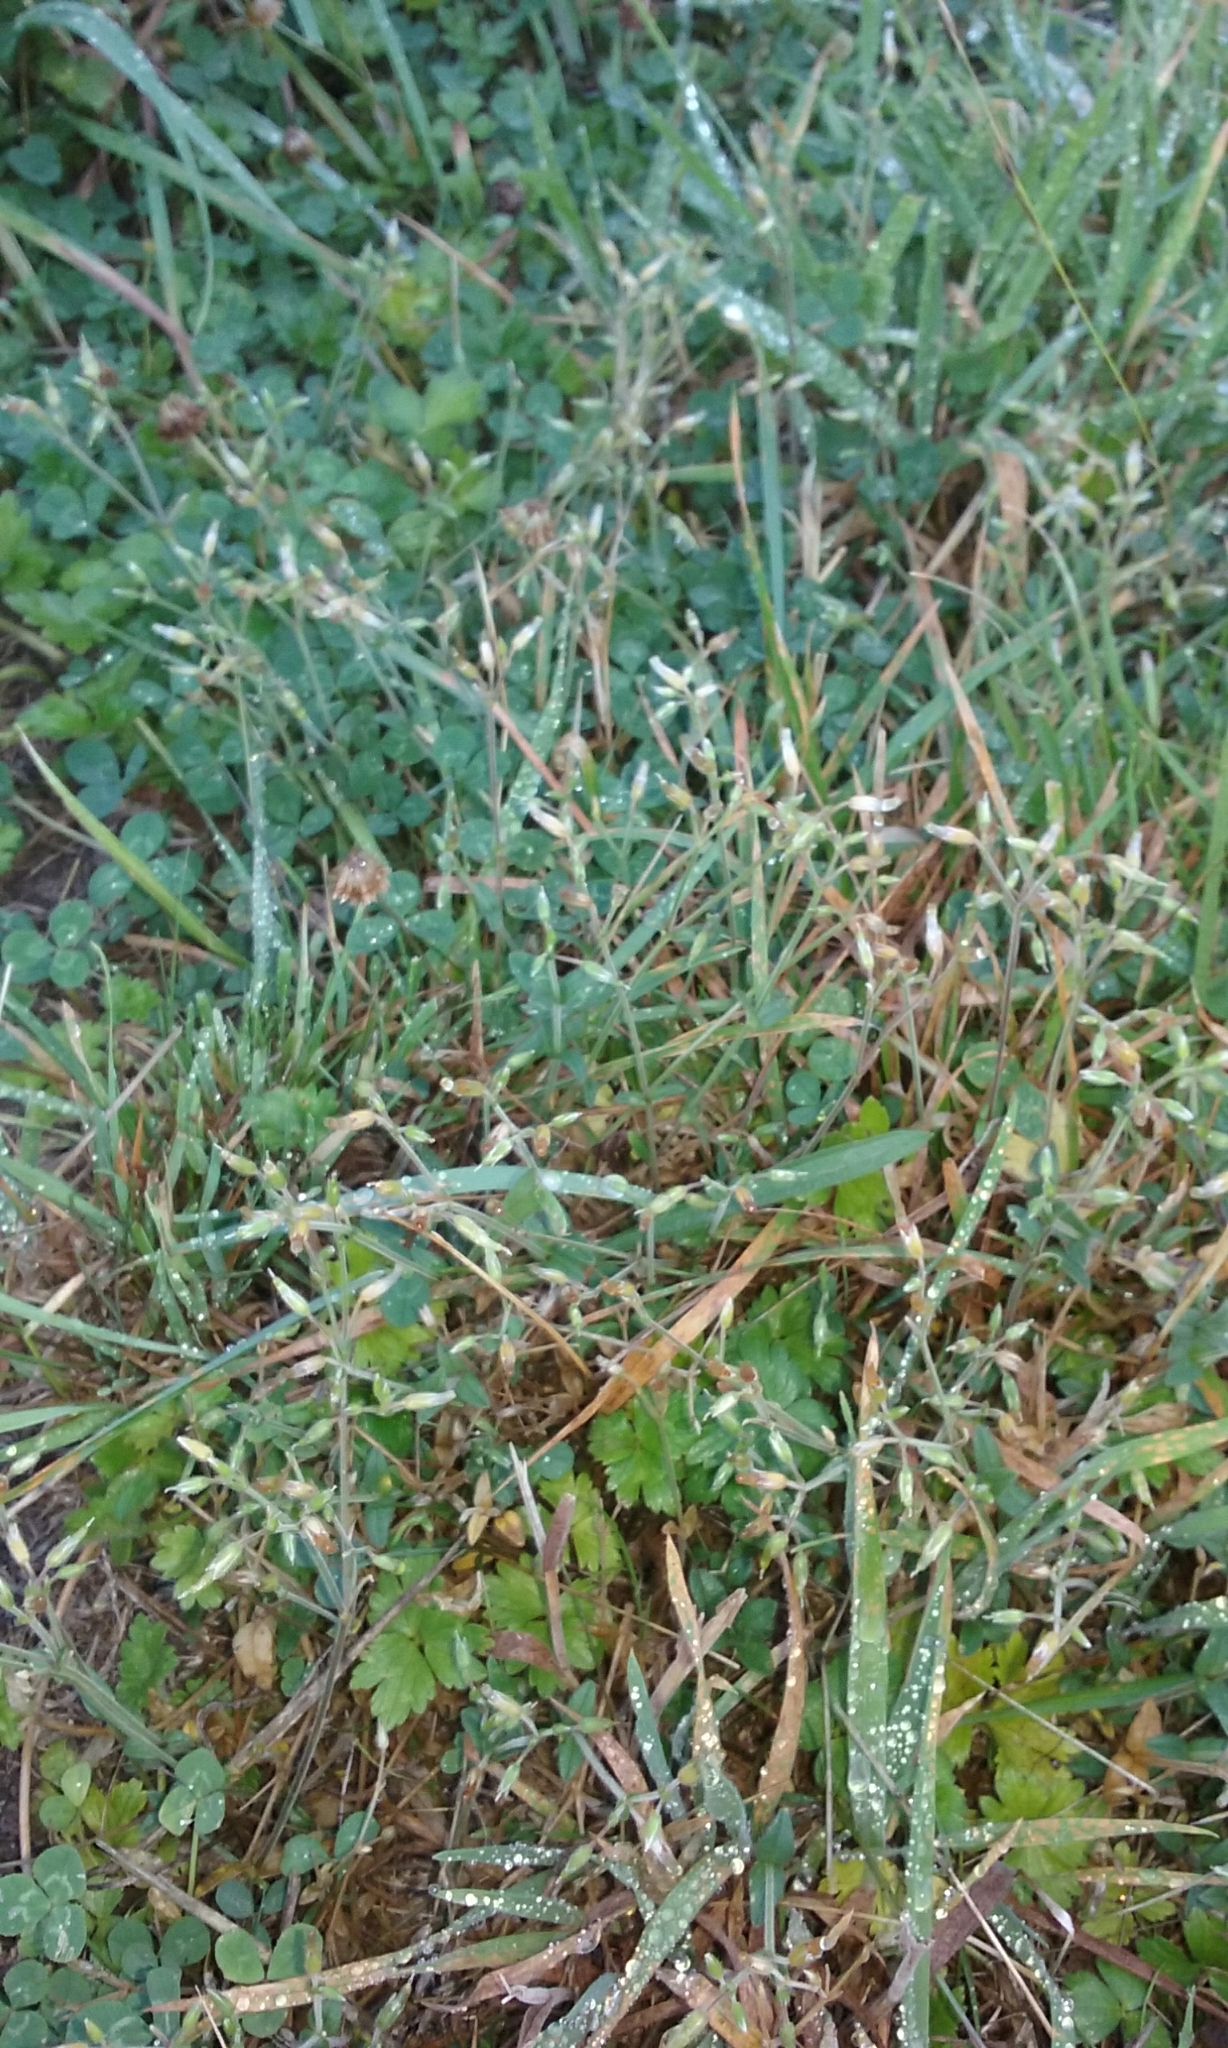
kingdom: Plantae
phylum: Tracheophyta
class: Magnoliopsida
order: Caryophyllales
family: Caryophyllaceae
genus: Cerastium
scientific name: Cerastium fontanum
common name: Common mouse-ear
